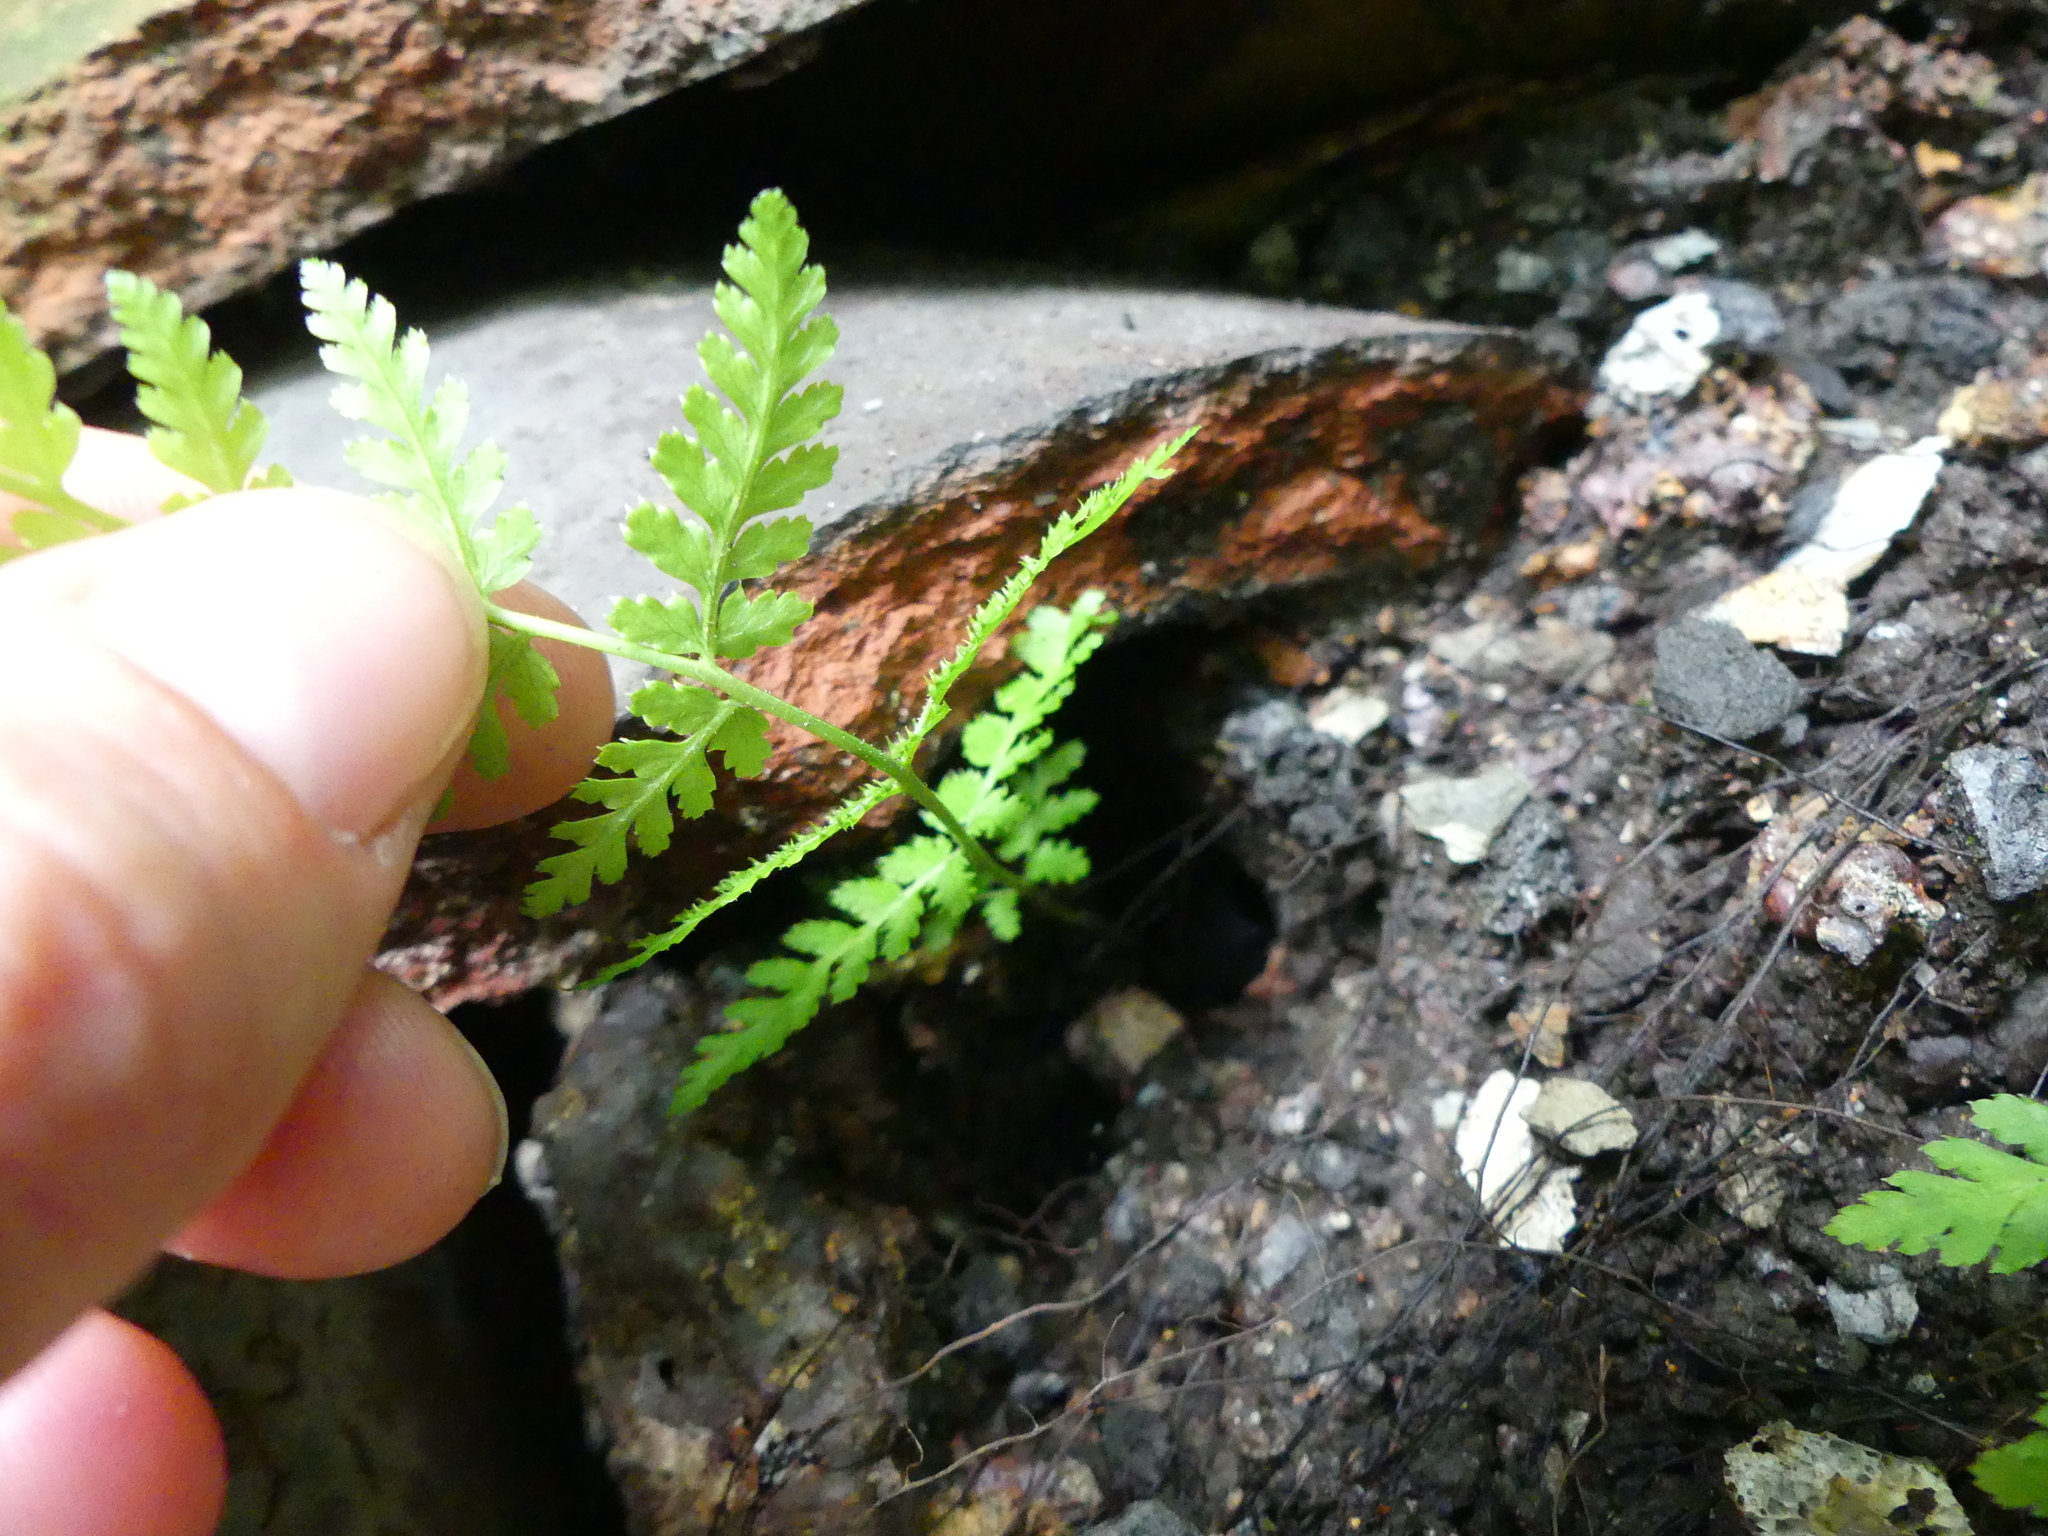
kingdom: Plantae
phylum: Tracheophyta
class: Polypodiopsida
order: Polypodiales
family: Dryopteridaceae
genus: Dryopteris
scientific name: Dryopteris intermedia
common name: Evergreen wood fern
